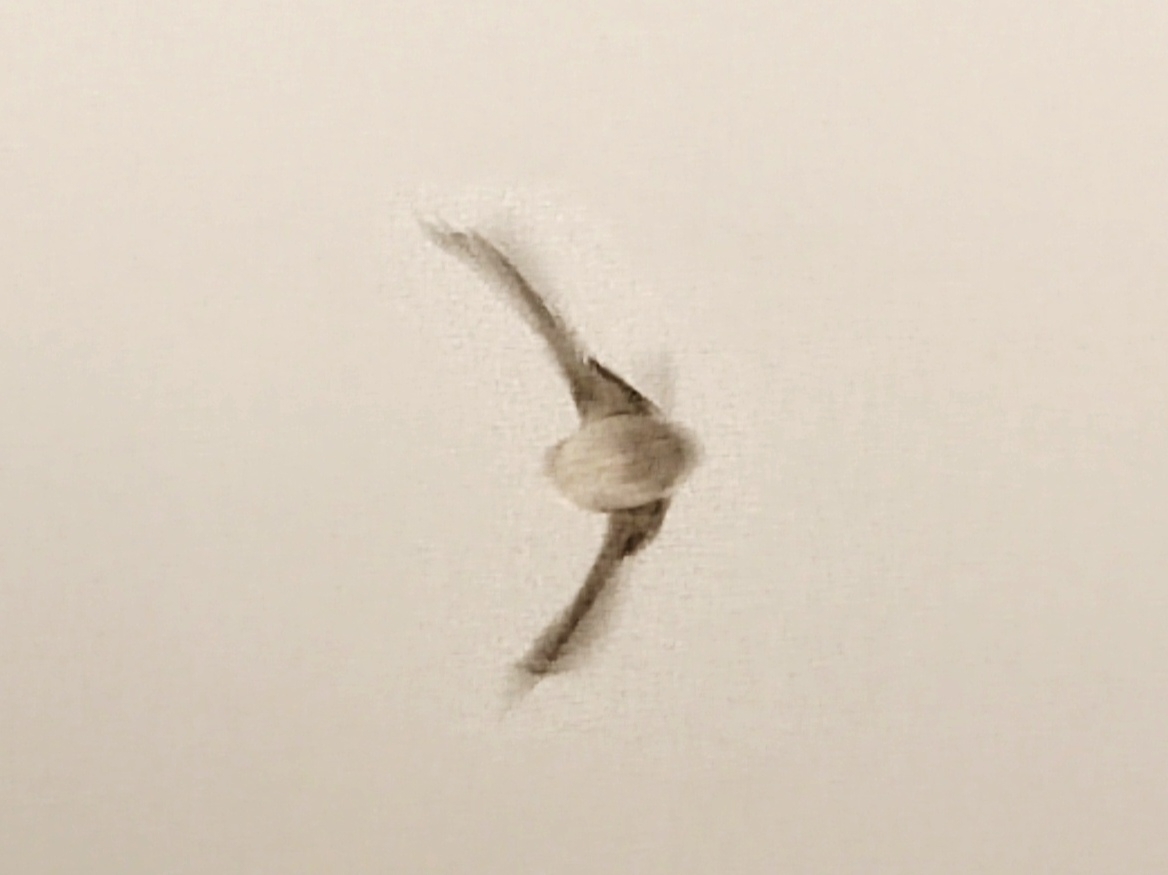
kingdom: Animalia
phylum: Chordata
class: Aves
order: Passeriformes
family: Hirundinidae
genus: Ptyonoprogne
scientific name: Ptyonoprogne fuligula
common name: Rock martin
